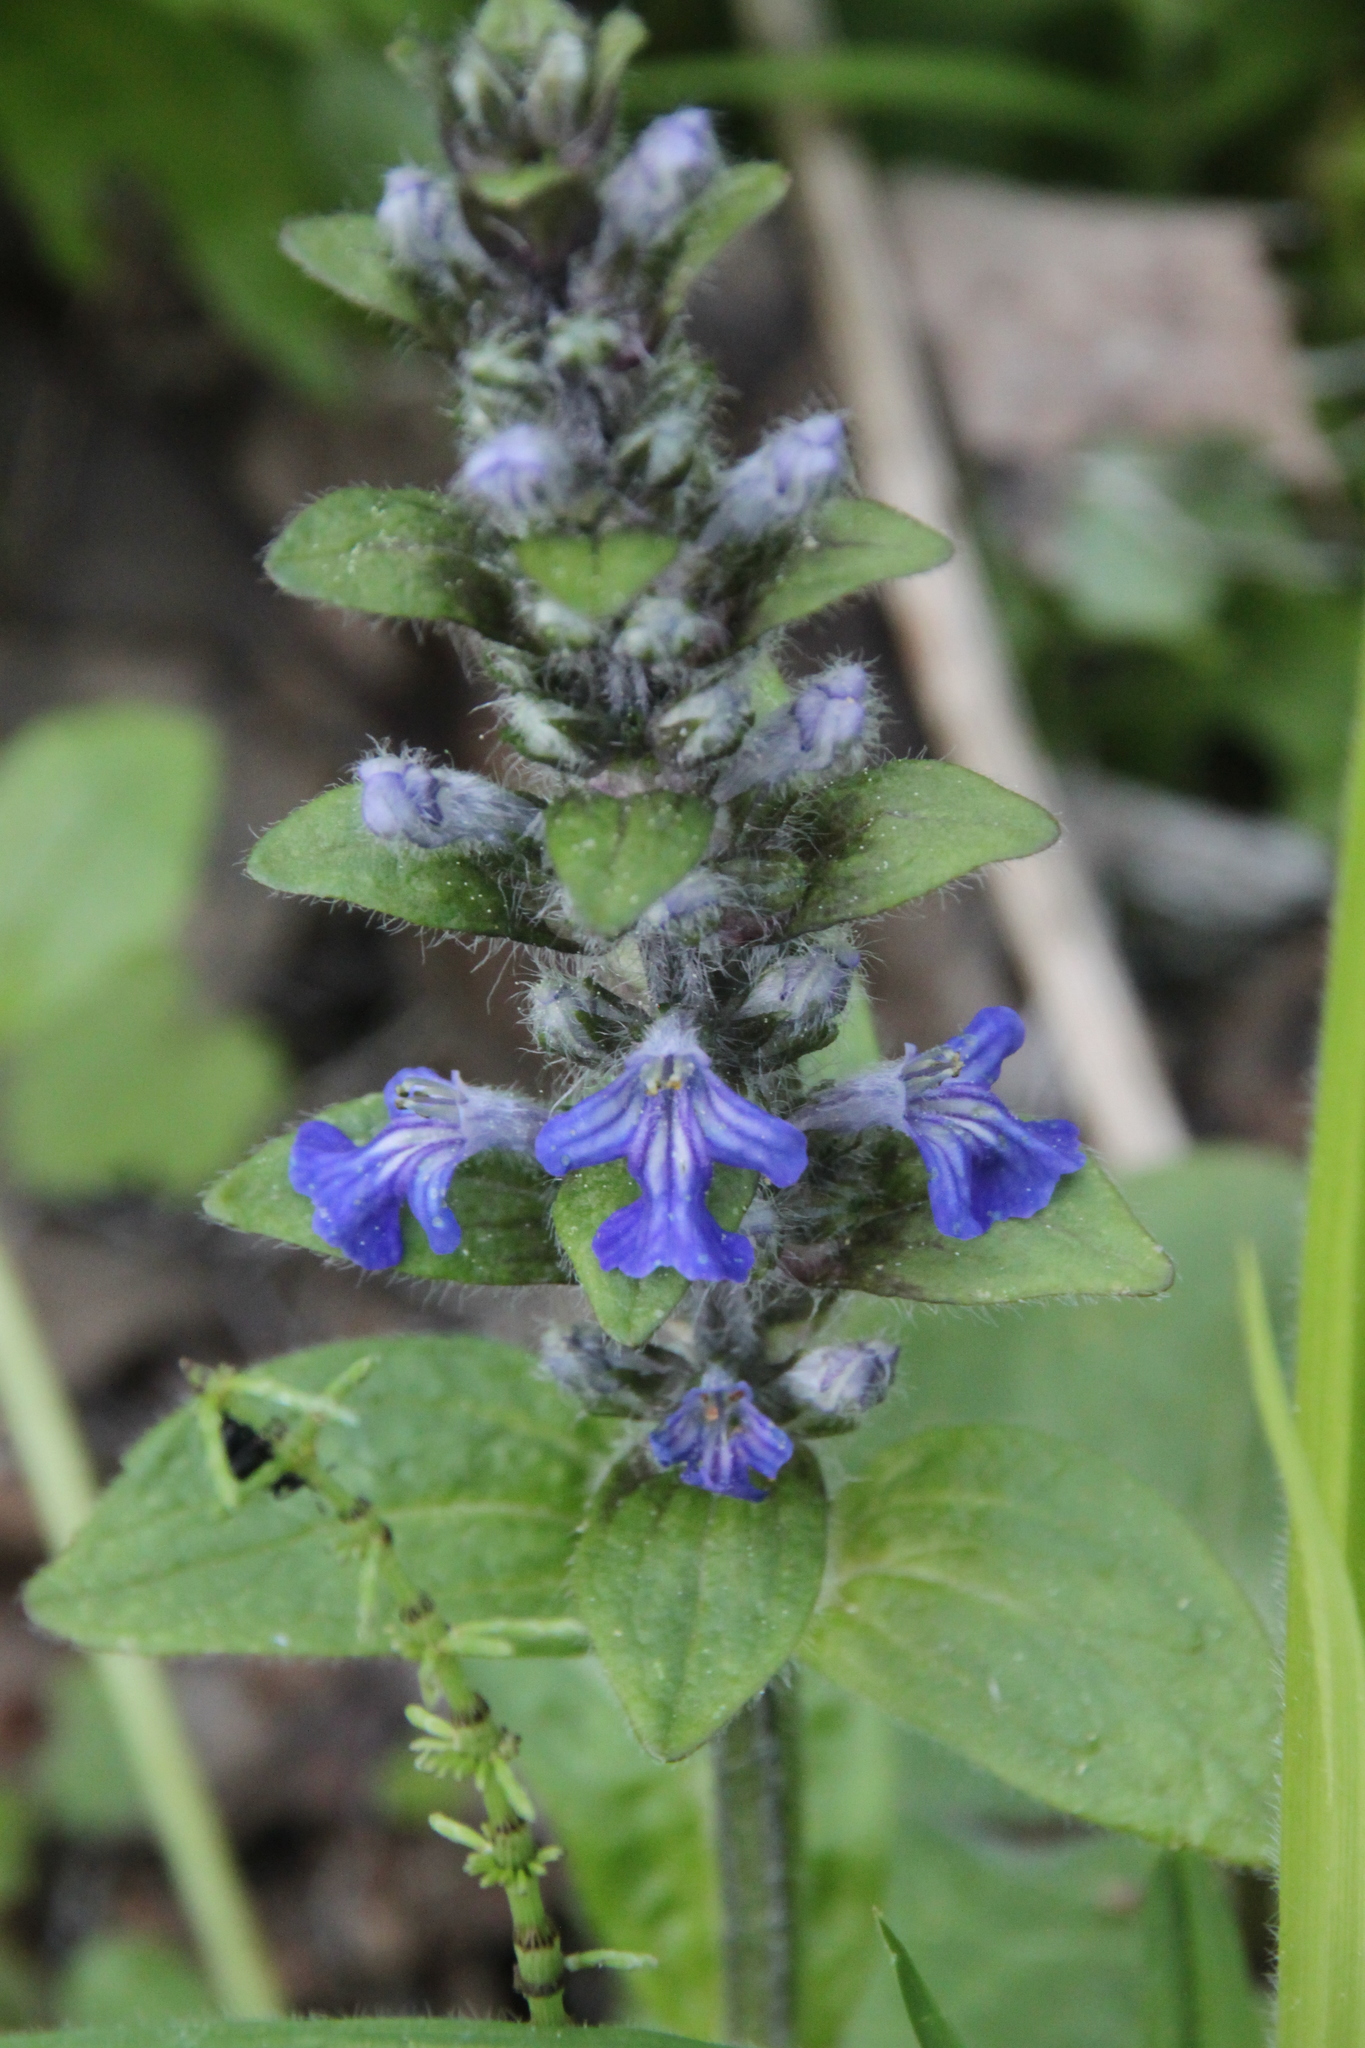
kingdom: Plantae
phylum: Tracheophyta
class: Magnoliopsida
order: Lamiales
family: Lamiaceae
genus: Ajuga
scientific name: Ajuga reptans
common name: Bugle
